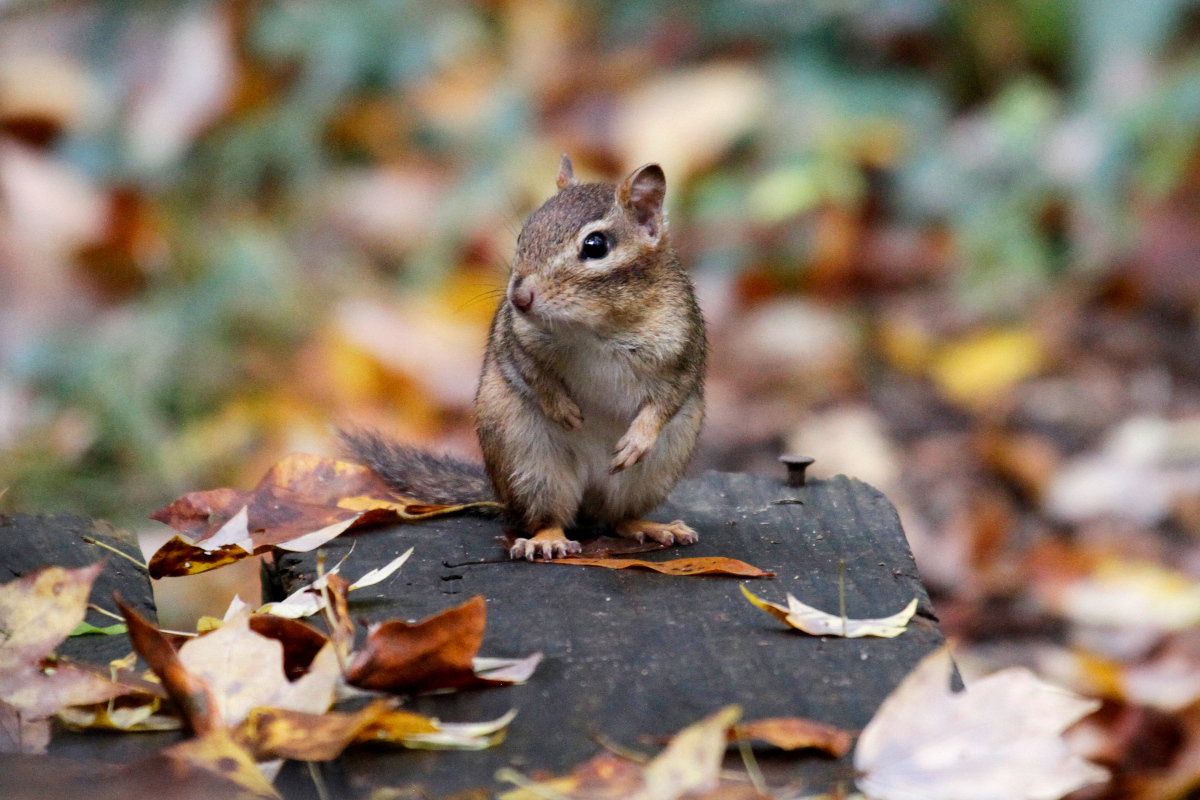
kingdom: Animalia
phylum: Chordata
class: Mammalia
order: Rodentia
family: Sciuridae
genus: Tamias
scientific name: Tamias striatus
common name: Eastern chipmunk
